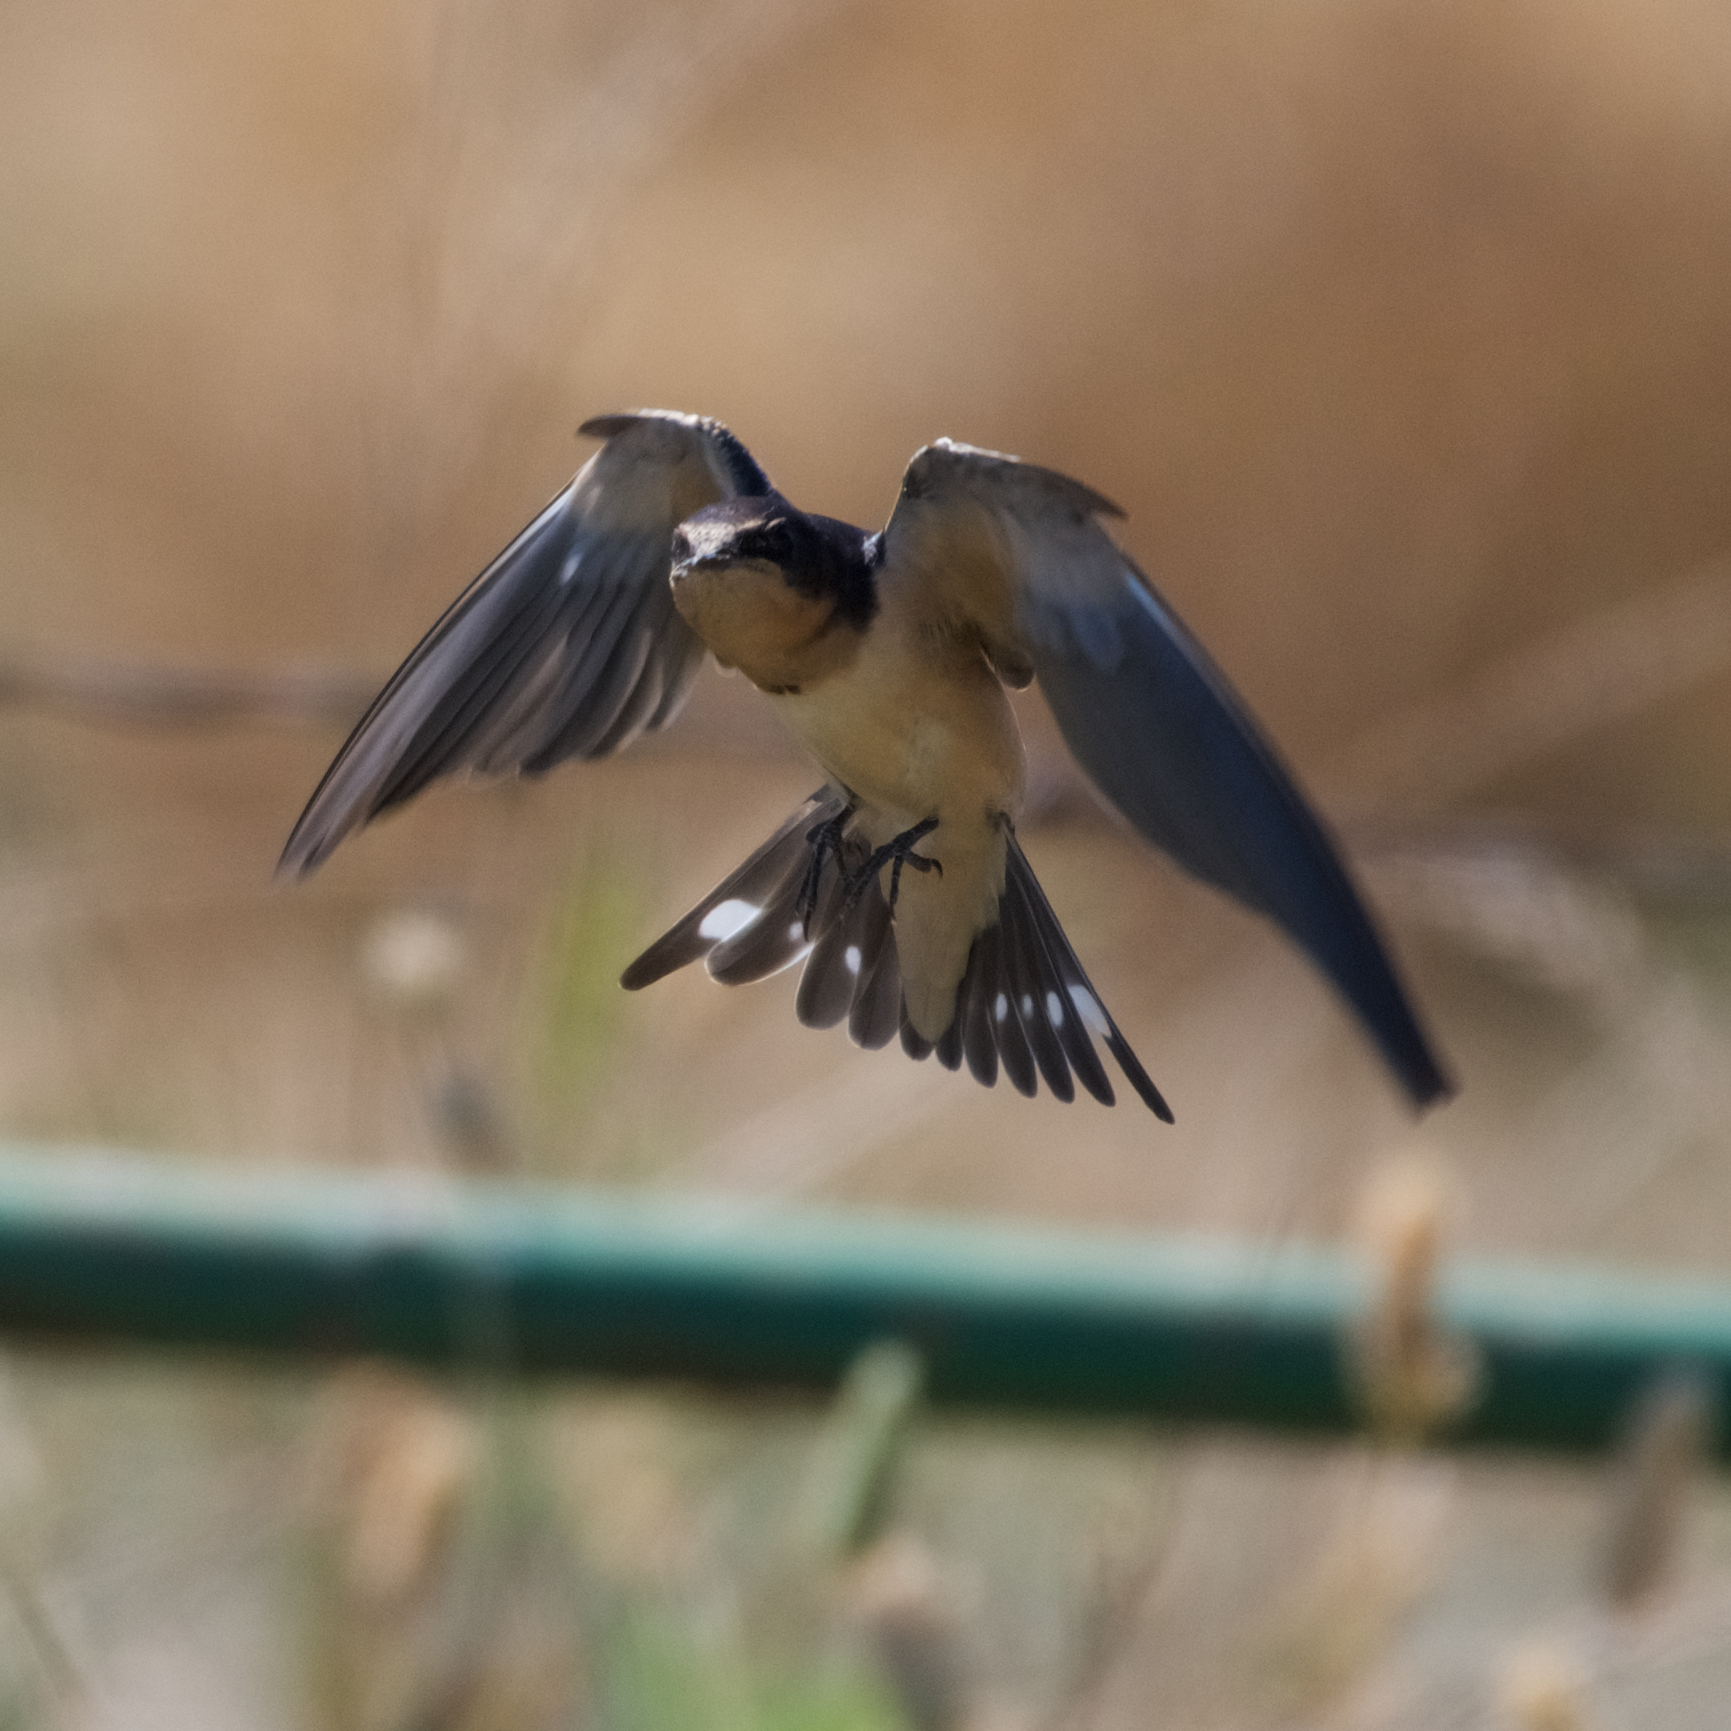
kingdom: Animalia
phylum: Chordata
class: Aves
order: Passeriformes
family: Hirundinidae
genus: Hirundo
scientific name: Hirundo rustica
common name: Barn swallow
